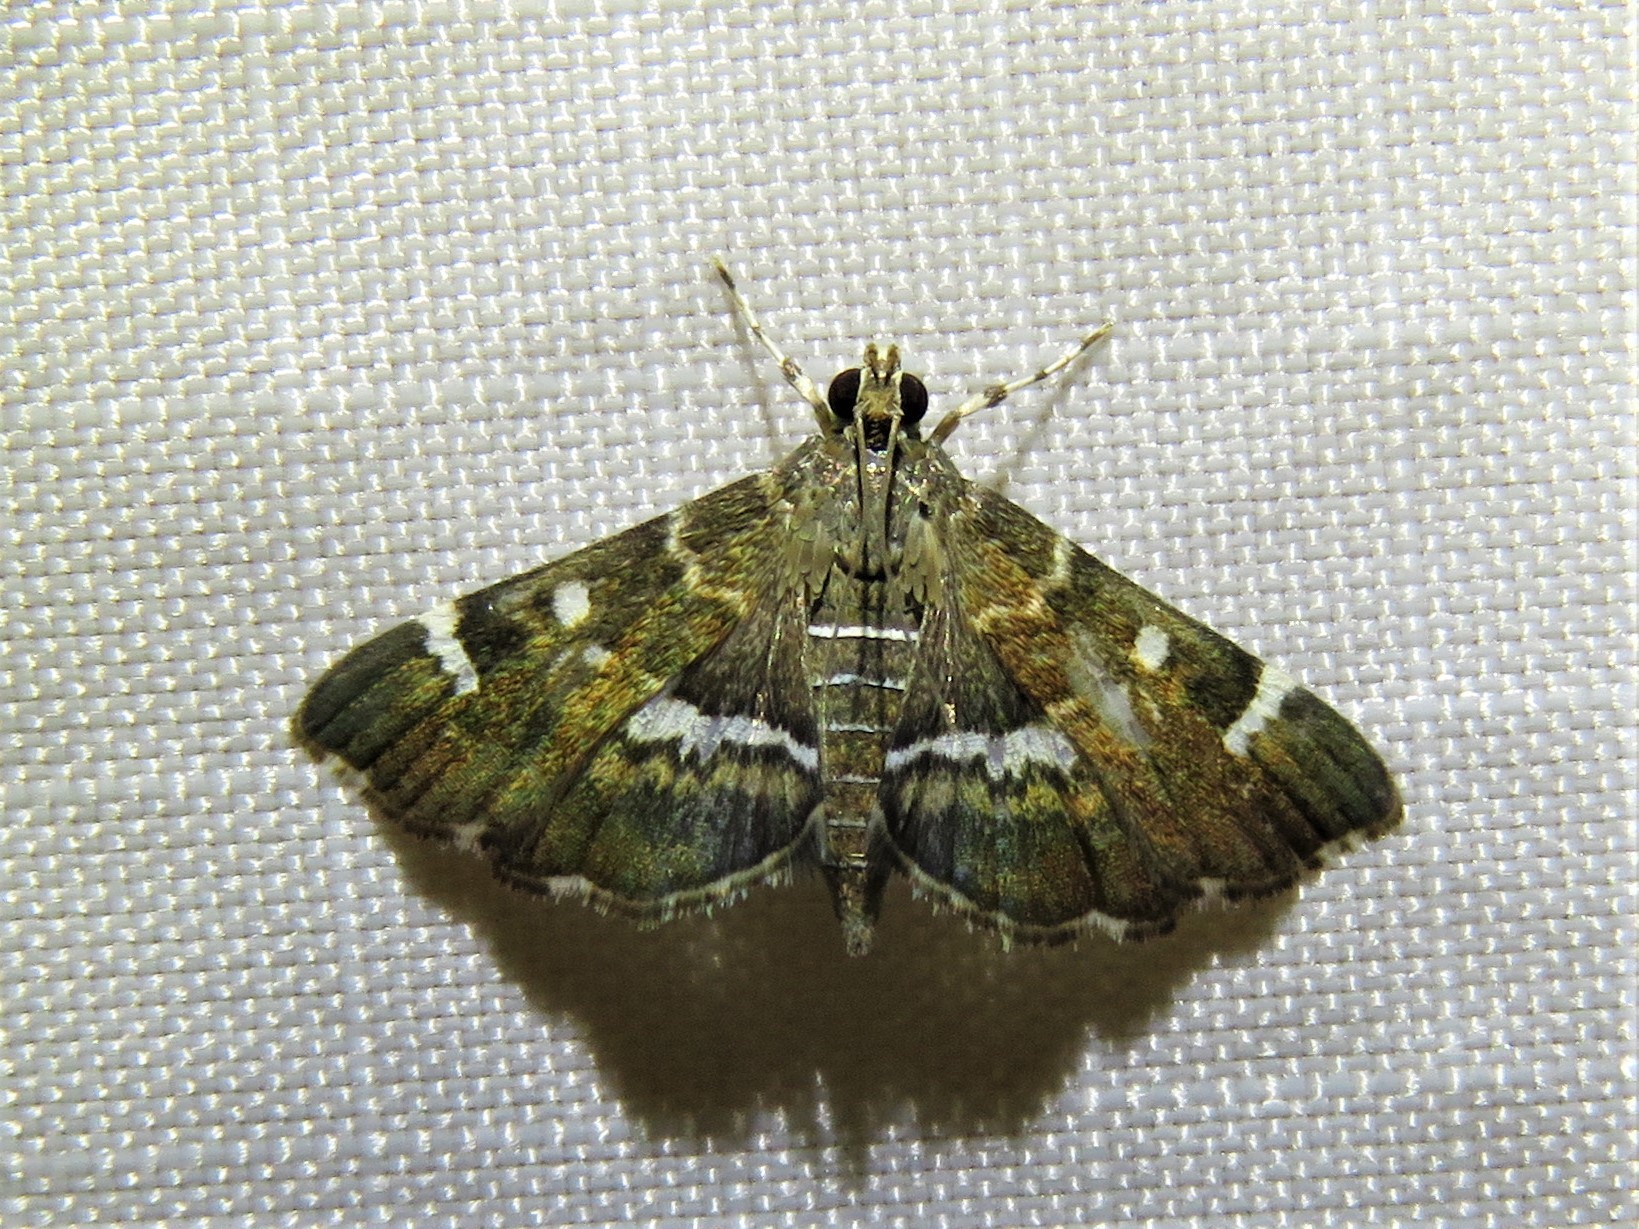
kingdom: Animalia
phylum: Arthropoda
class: Insecta
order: Lepidoptera
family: Crambidae
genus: Hymenia
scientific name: Hymenia perspectalis
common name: Spotted beet webworm
